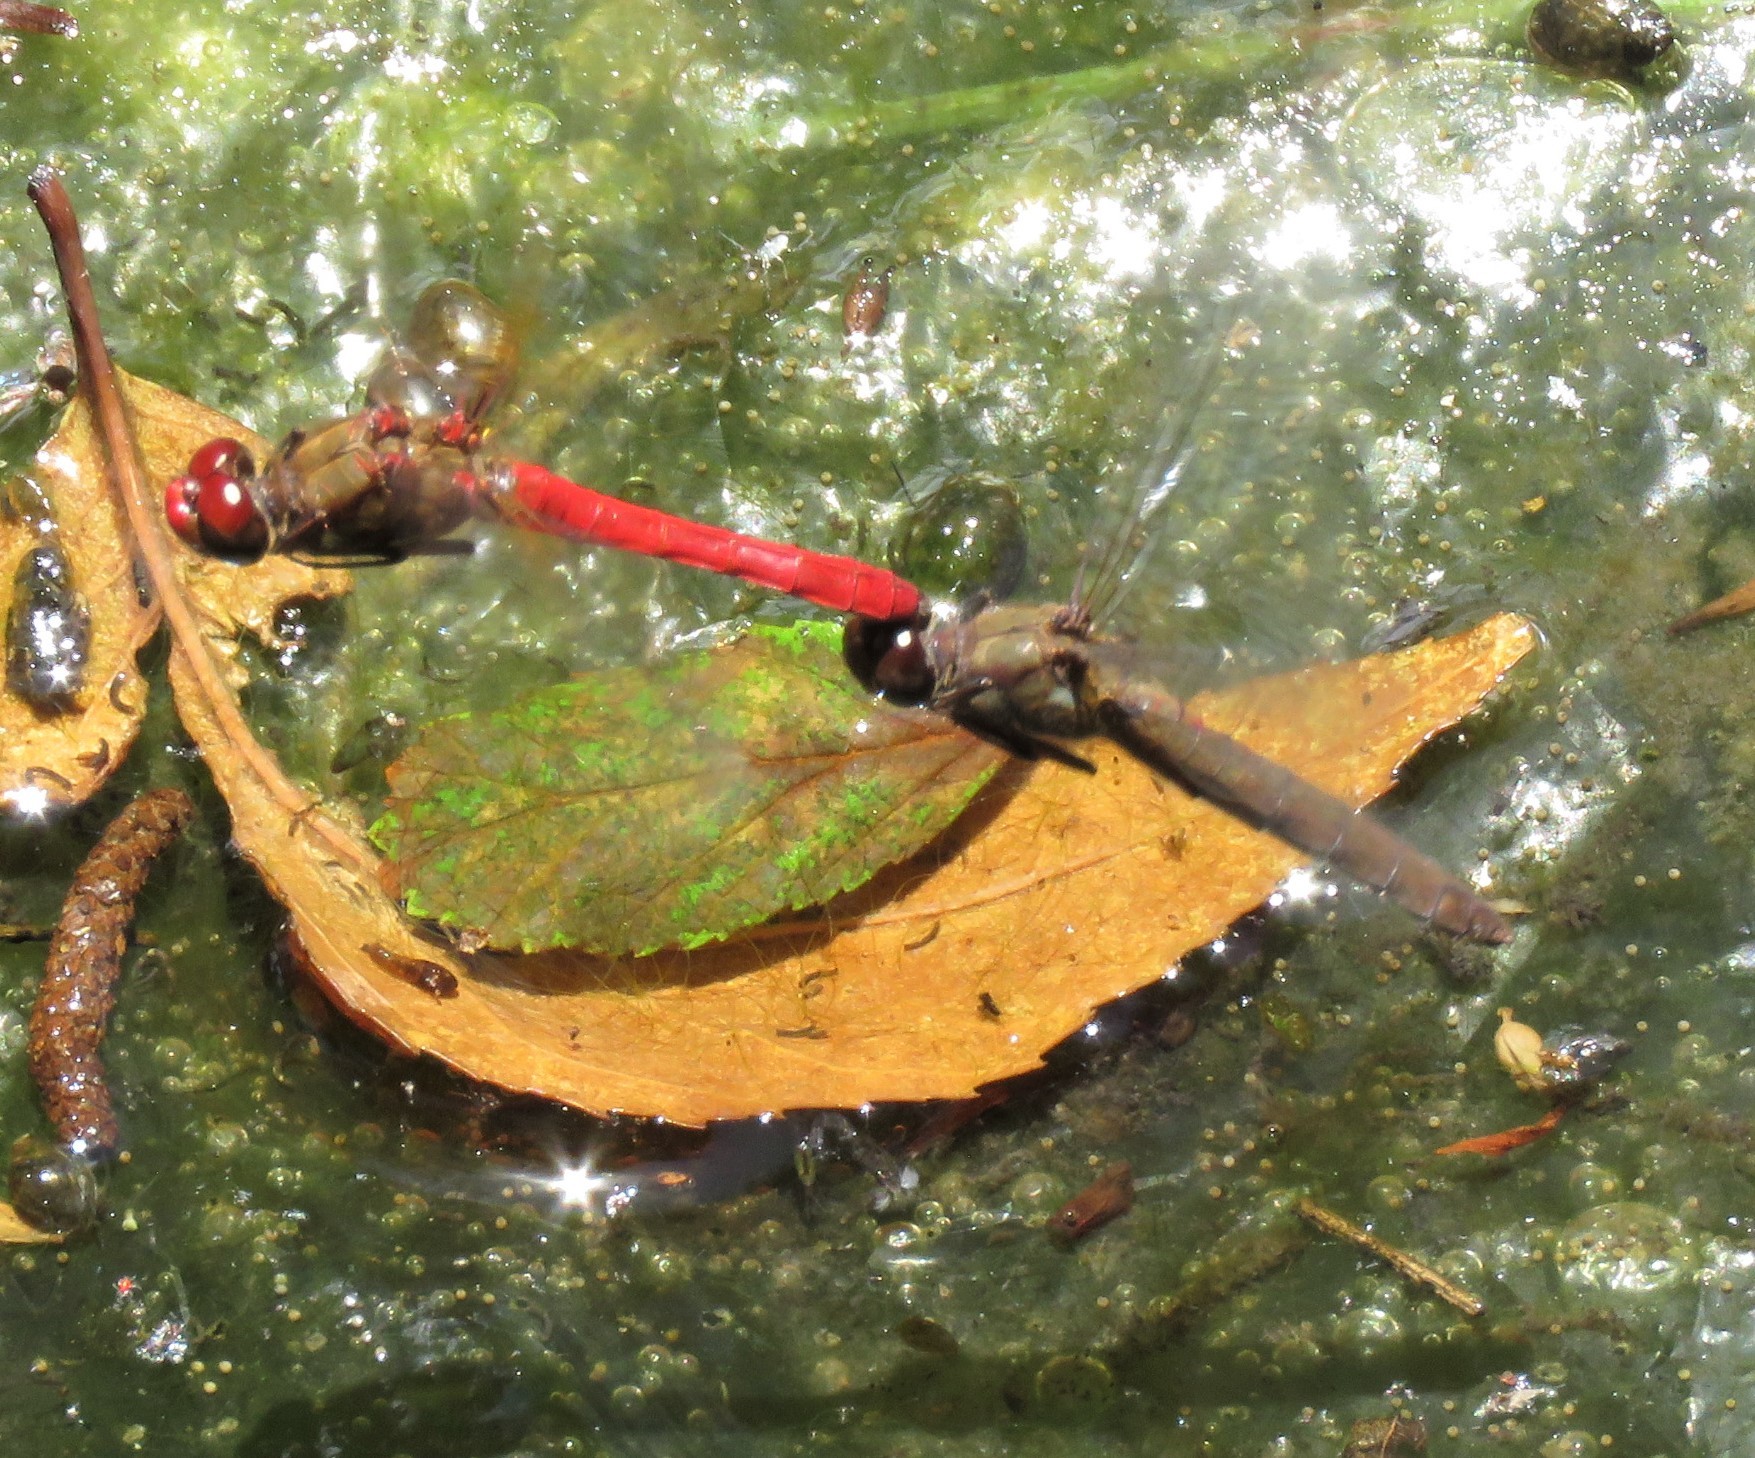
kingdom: Animalia
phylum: Arthropoda
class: Insecta
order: Odonata
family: Libellulidae
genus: Sympetrum
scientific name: Sympetrum gilvum
